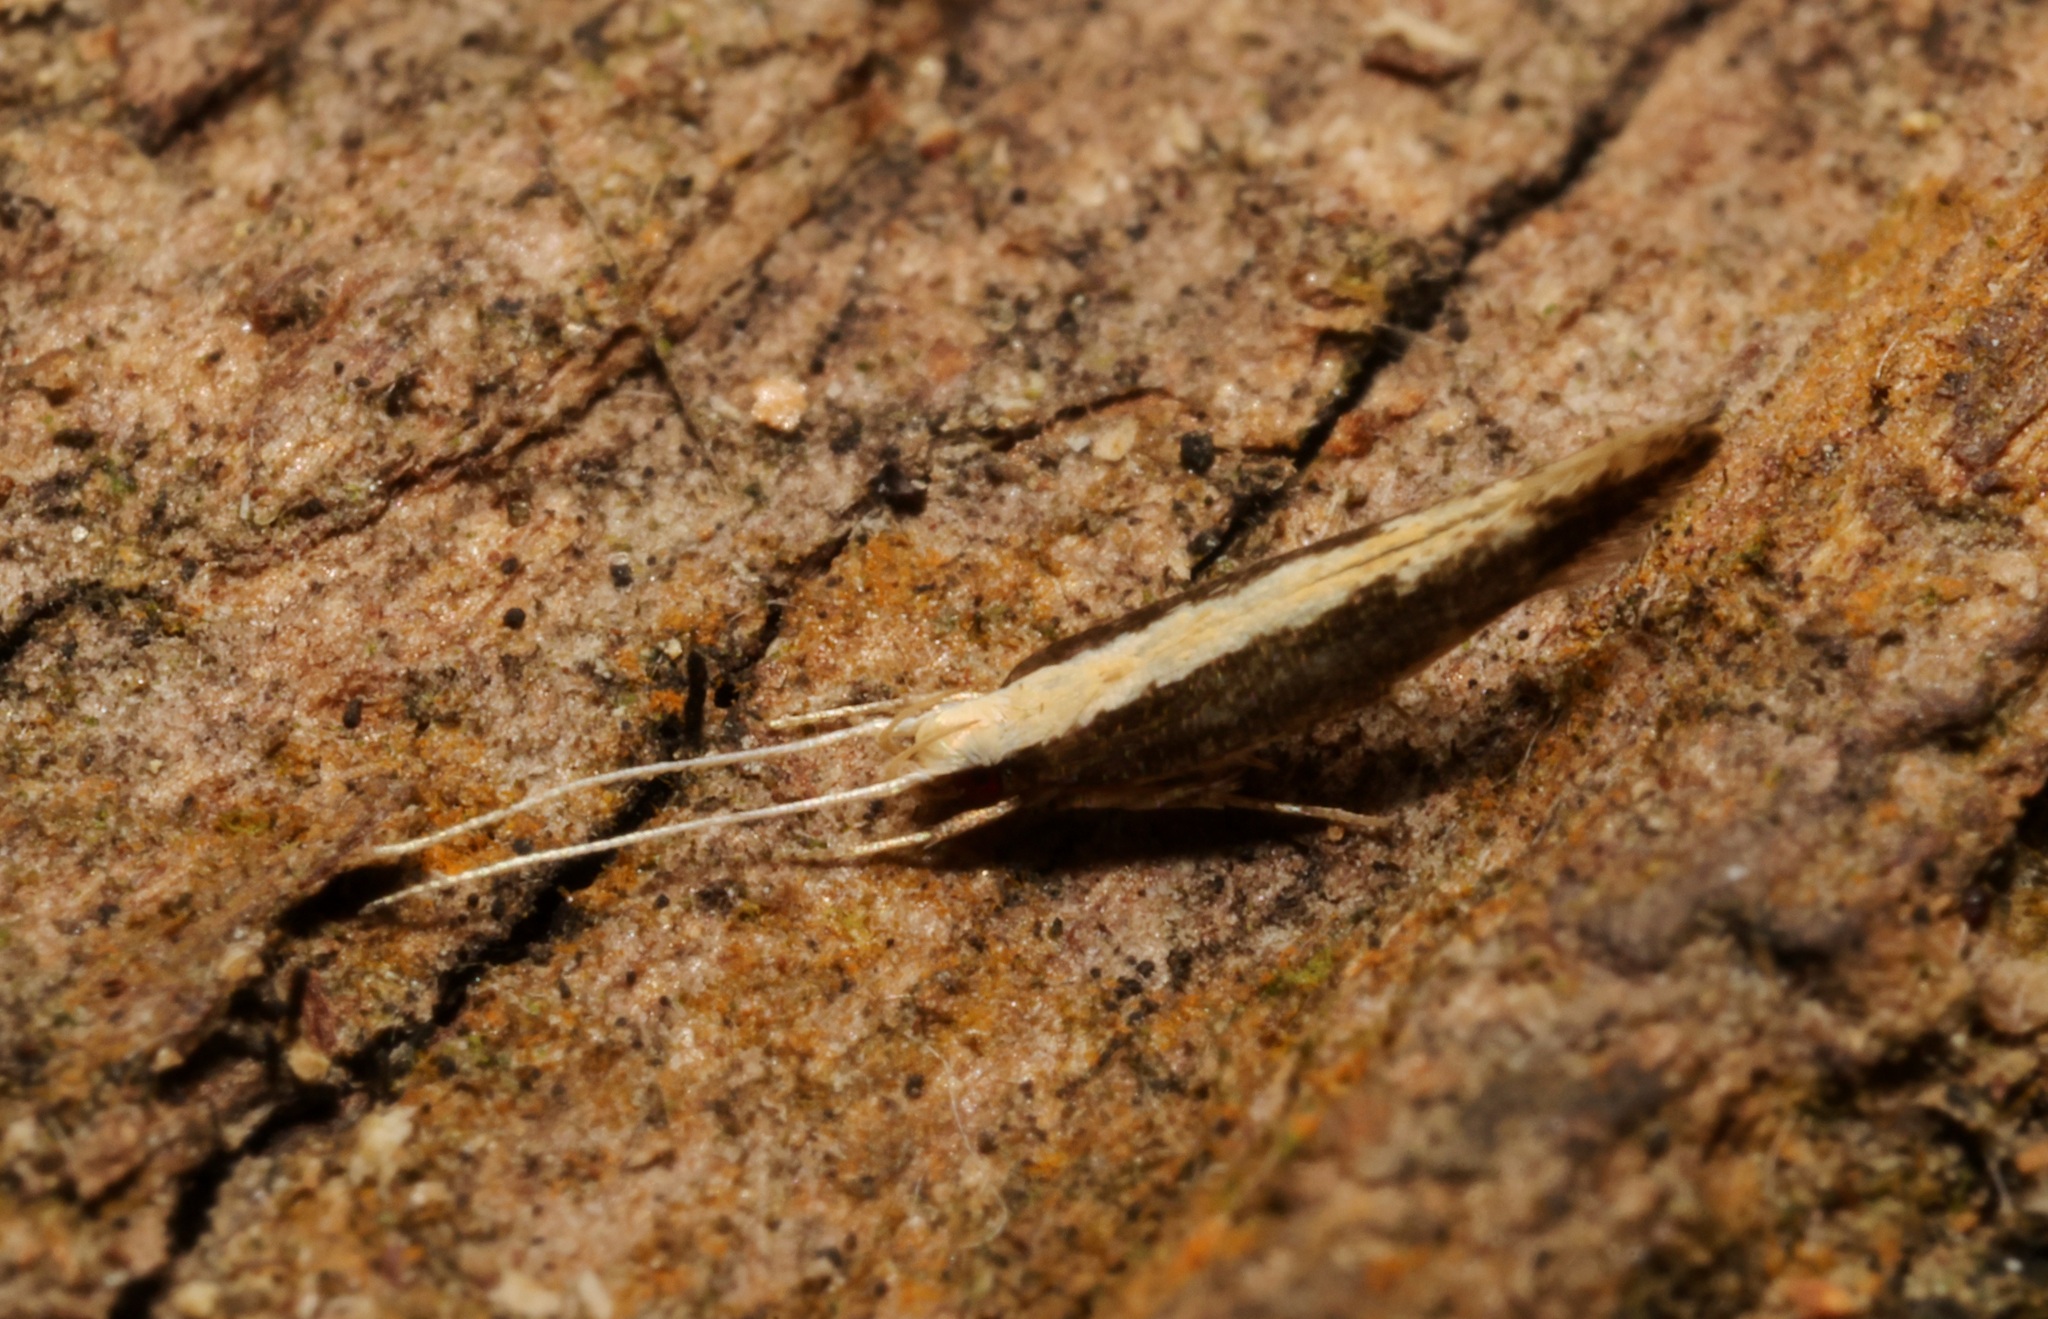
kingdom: Animalia
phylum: Arthropoda
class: Insecta
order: Lepidoptera
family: Cosmopterigidae
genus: Labdia
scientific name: Labdia oxychlora
